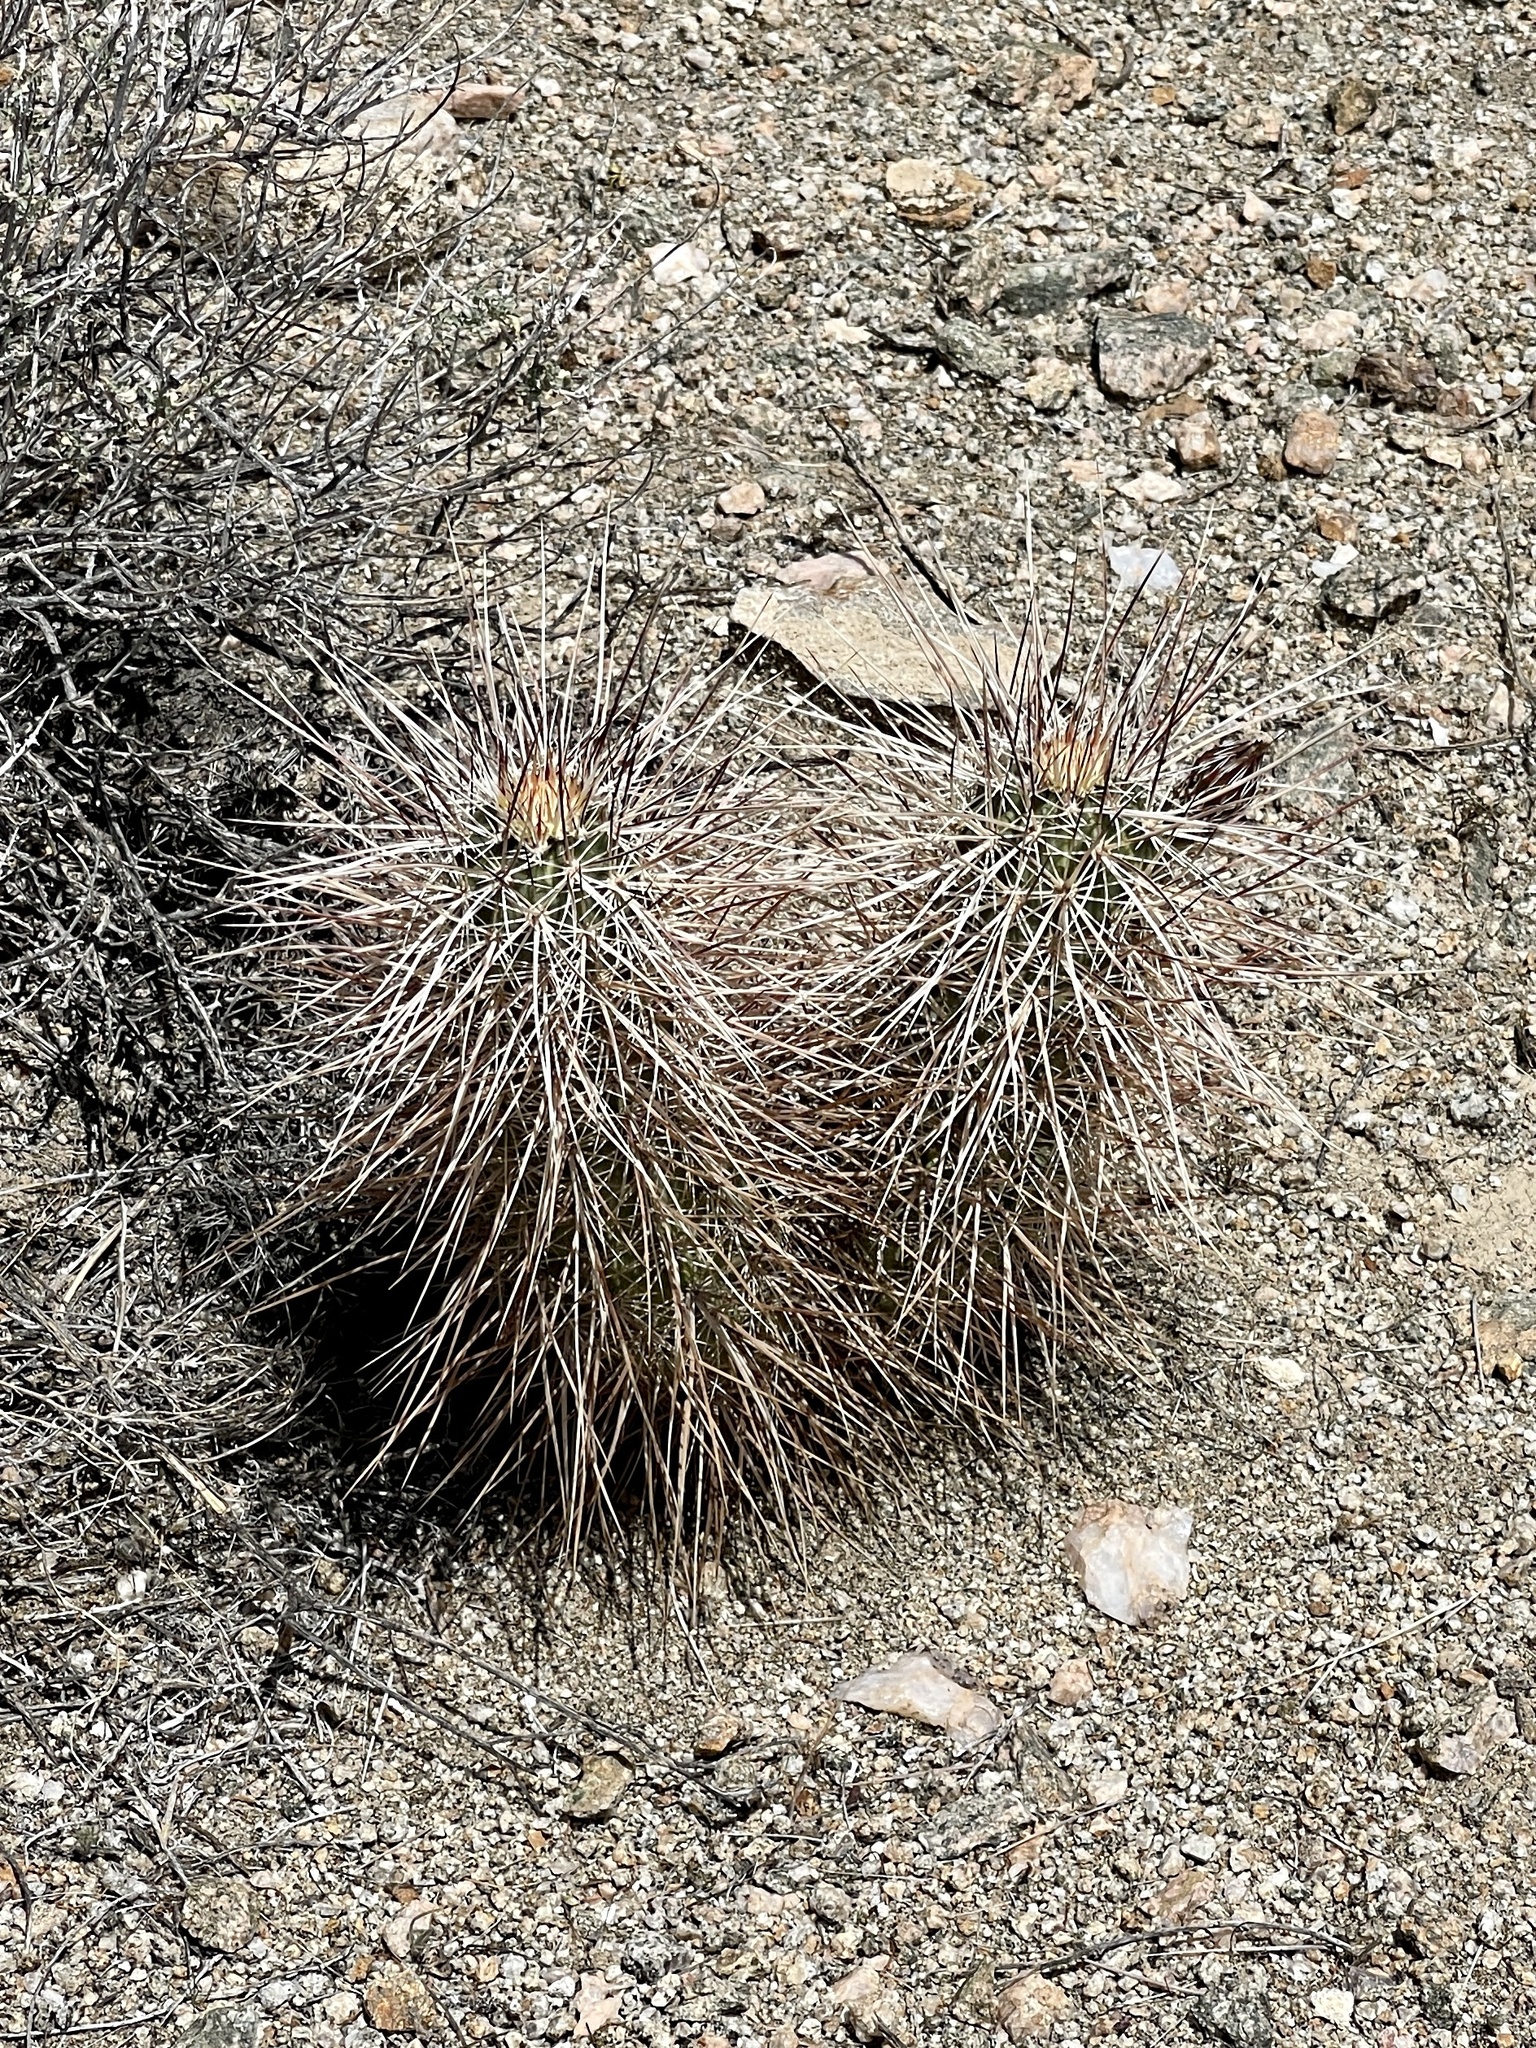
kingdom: Plantae
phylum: Tracheophyta
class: Magnoliopsida
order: Caryophyllales
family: Cactaceae
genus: Echinocereus
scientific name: Echinocereus engelmannii
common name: Engelmann's hedgehog cactus
